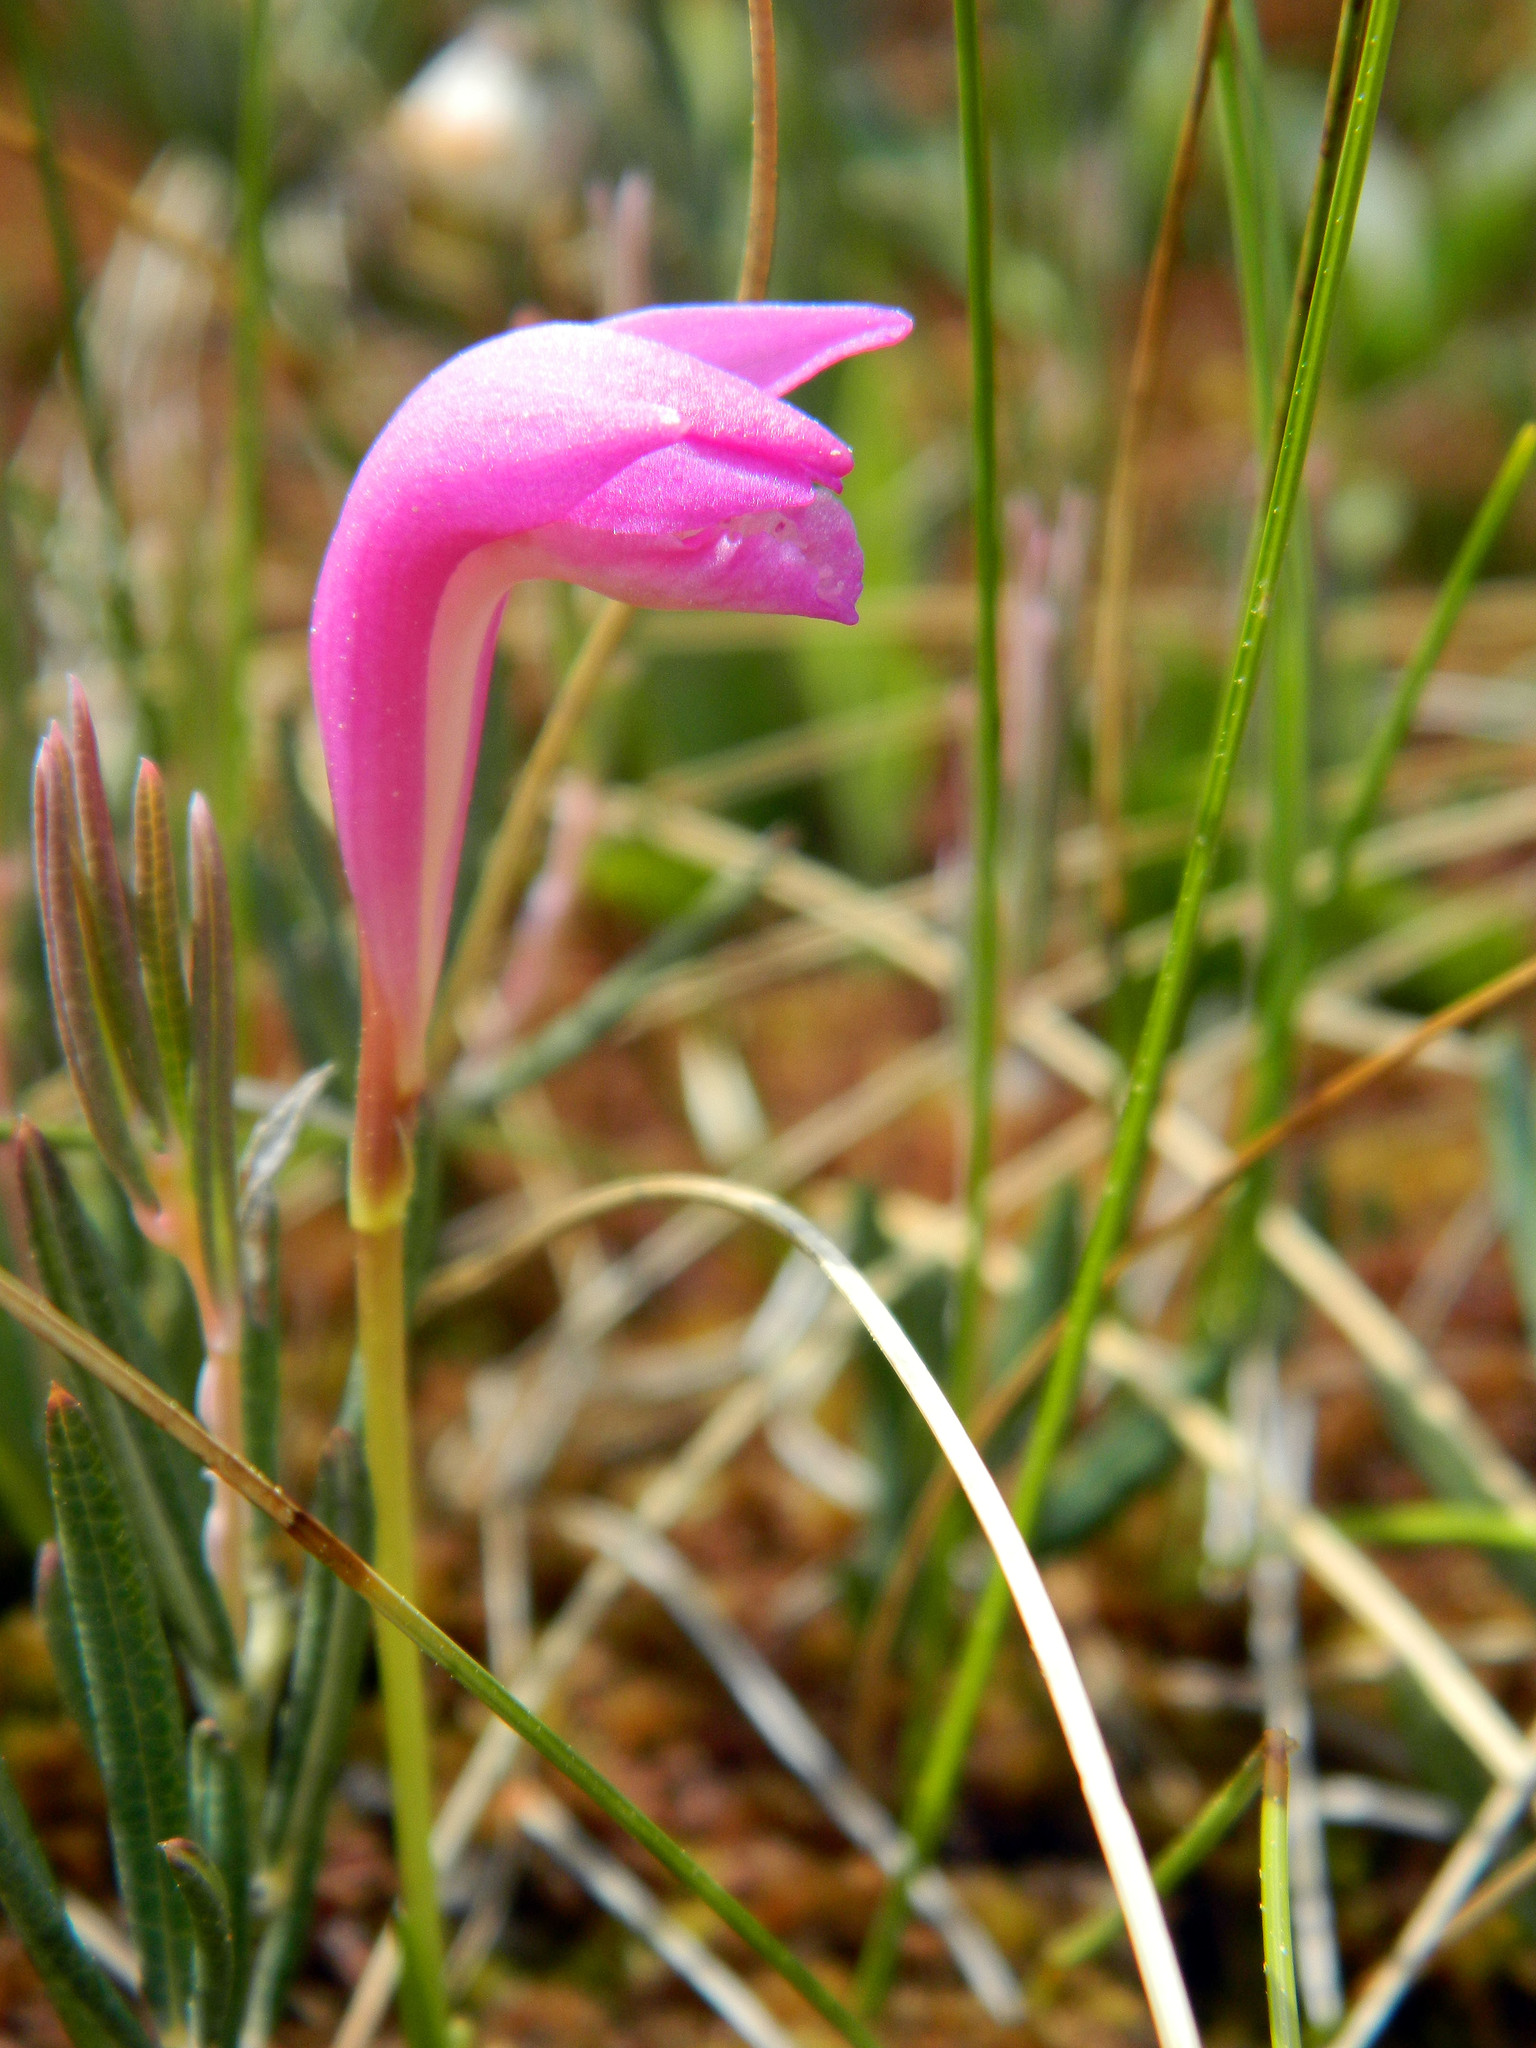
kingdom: Plantae
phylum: Tracheophyta
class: Liliopsida
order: Asparagales
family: Orchidaceae
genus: Arethusa
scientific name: Arethusa bulbosa
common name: Arethusa
